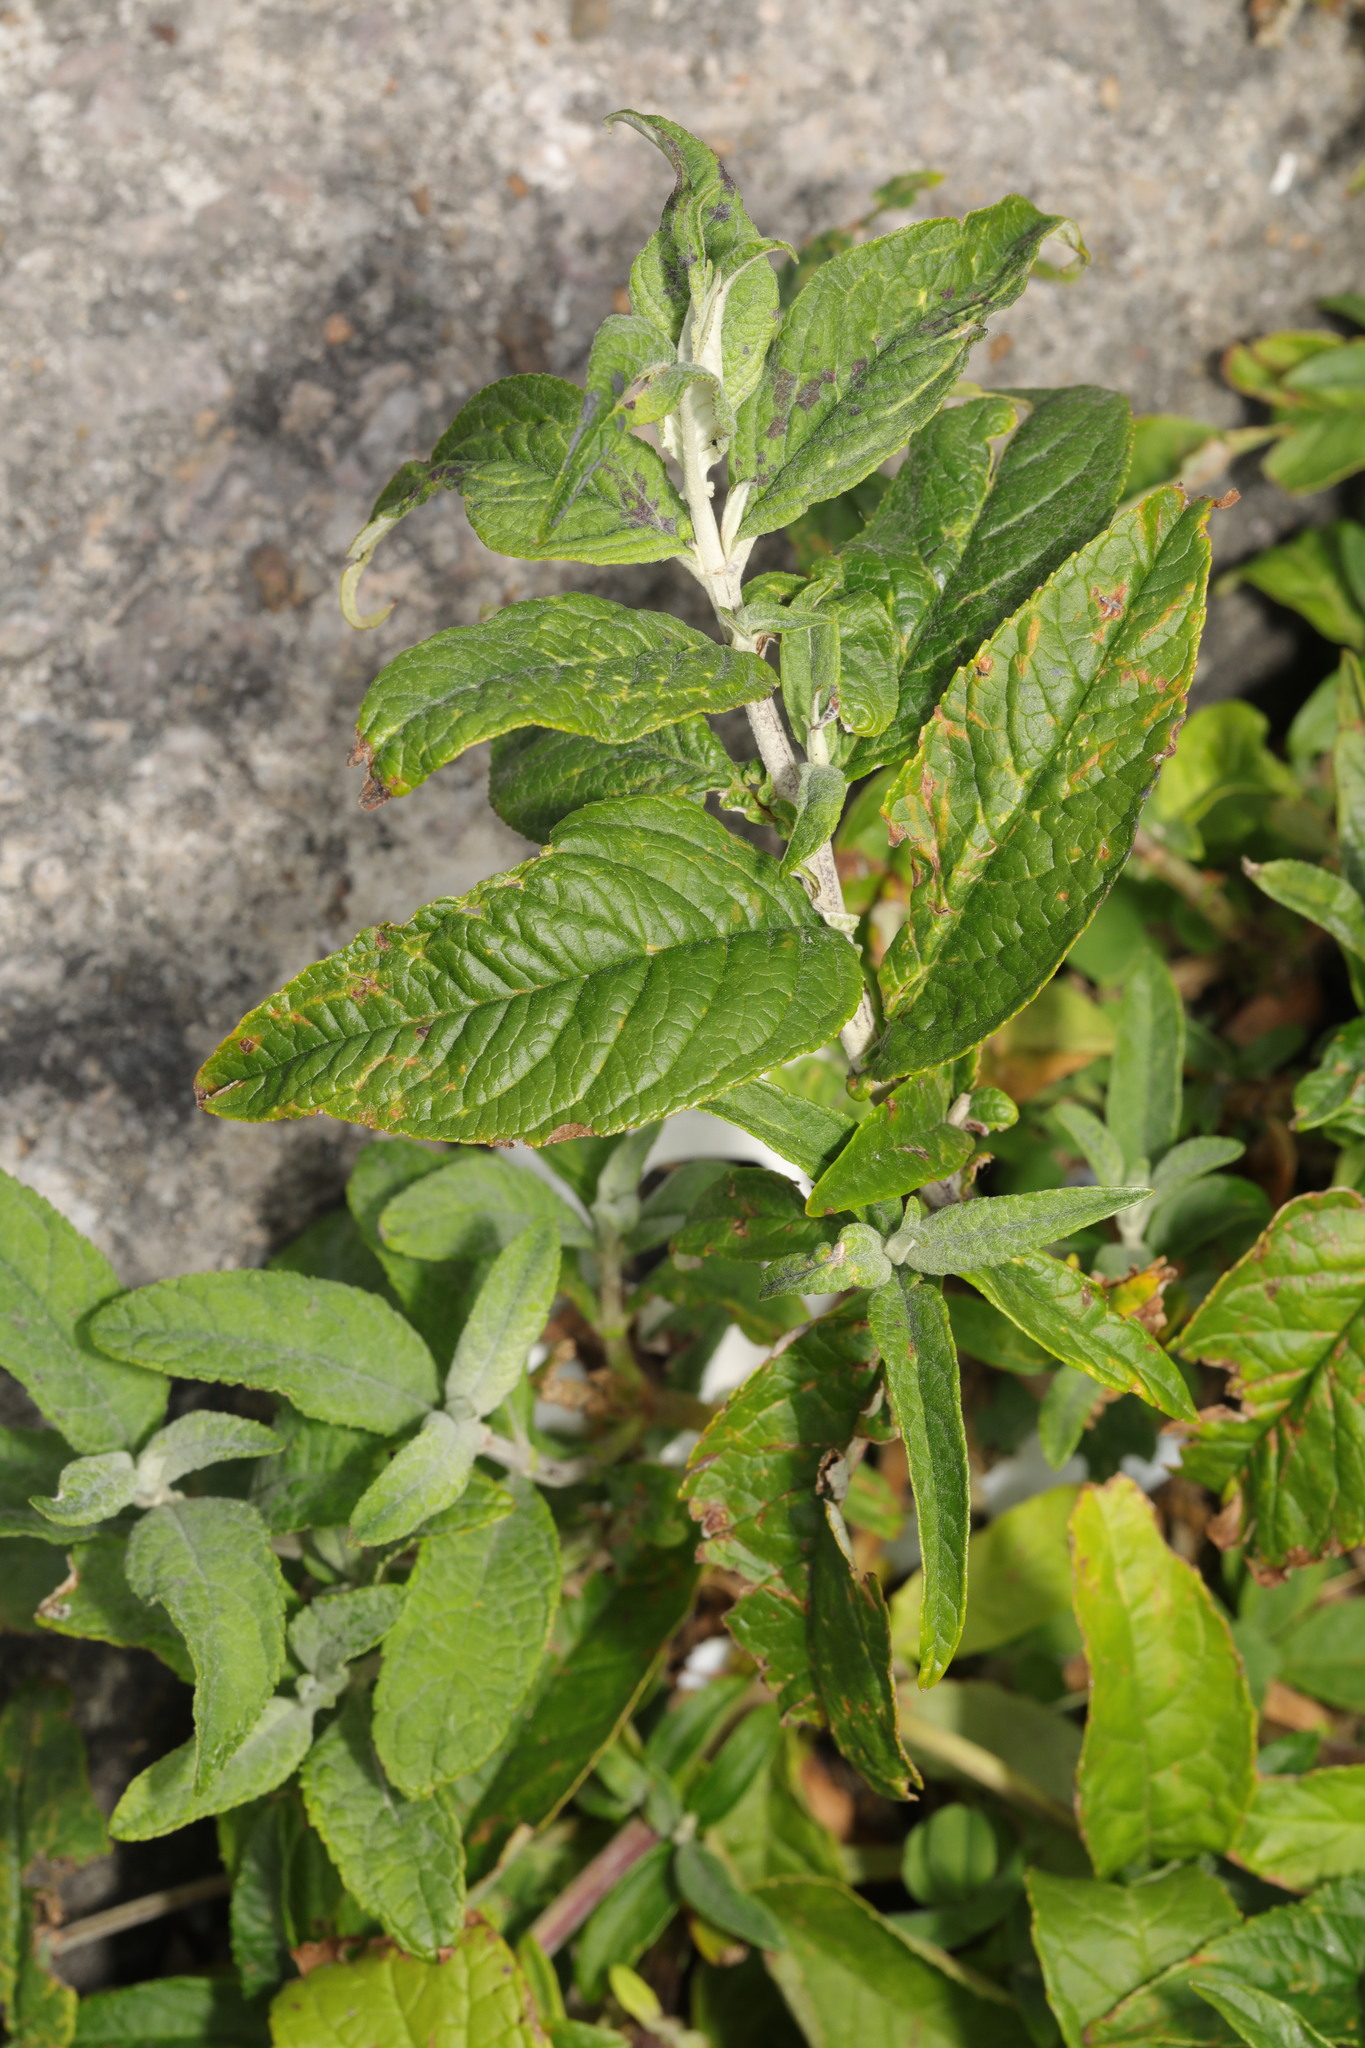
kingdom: Plantae
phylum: Tracheophyta
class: Magnoliopsida
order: Lamiales
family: Scrophulariaceae
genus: Buddleja
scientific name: Buddleja davidii
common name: Butterfly-bush
